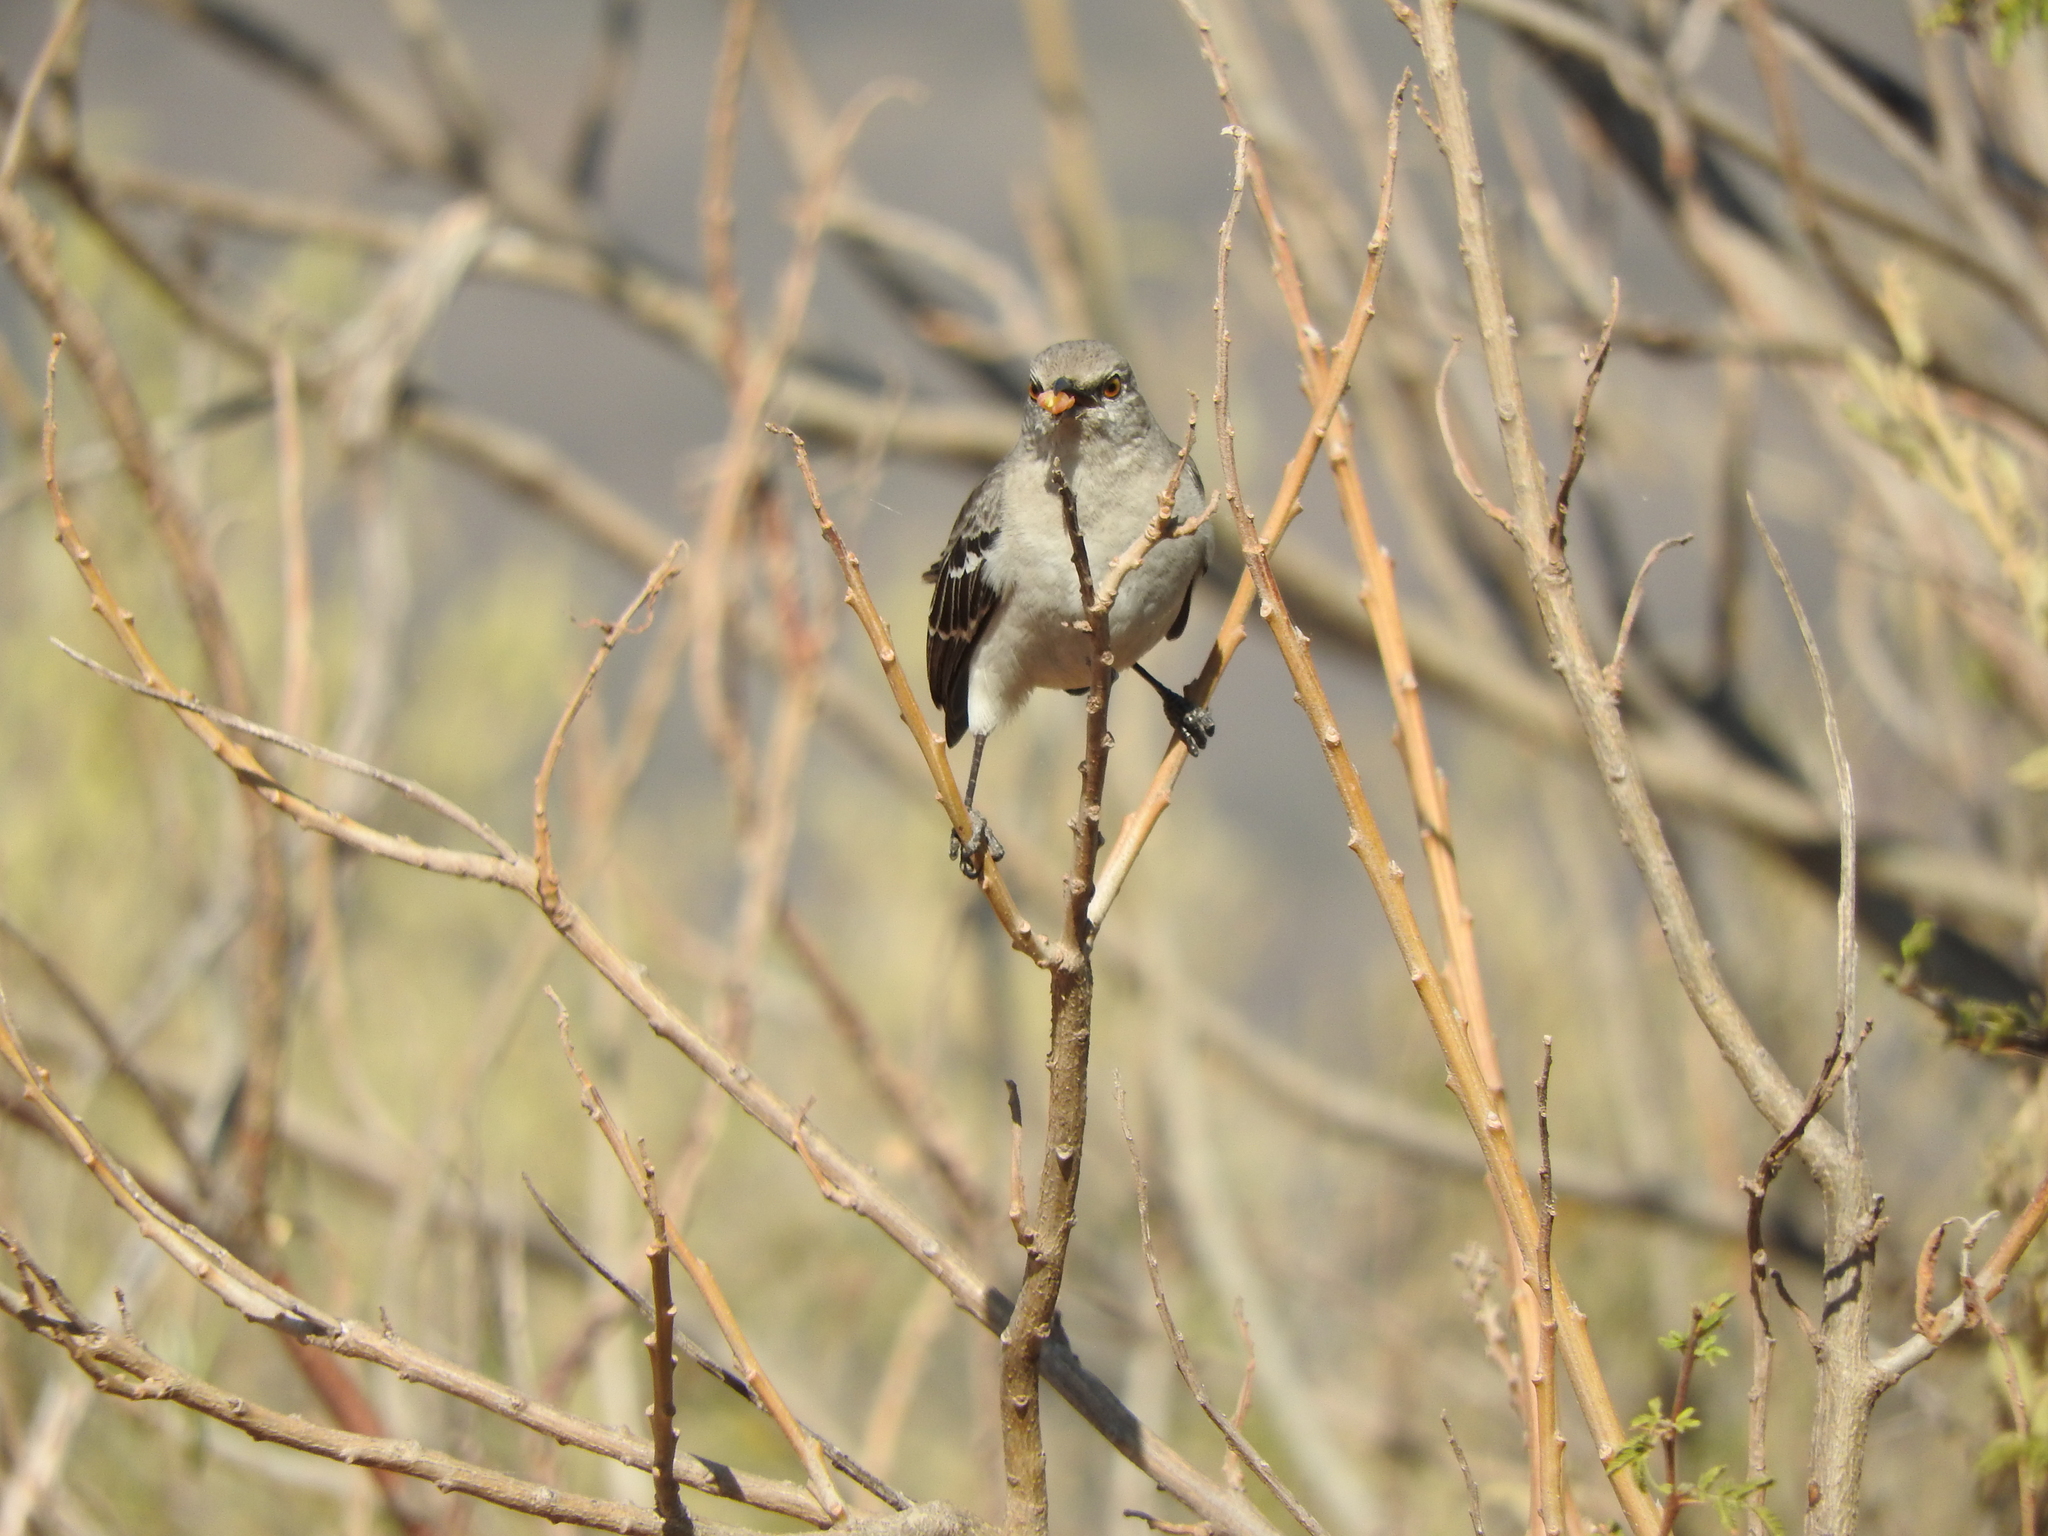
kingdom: Animalia
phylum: Chordata
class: Aves
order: Passeriformes
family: Mimidae
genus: Mimus
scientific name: Mimus polyglottos
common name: Northern mockingbird
